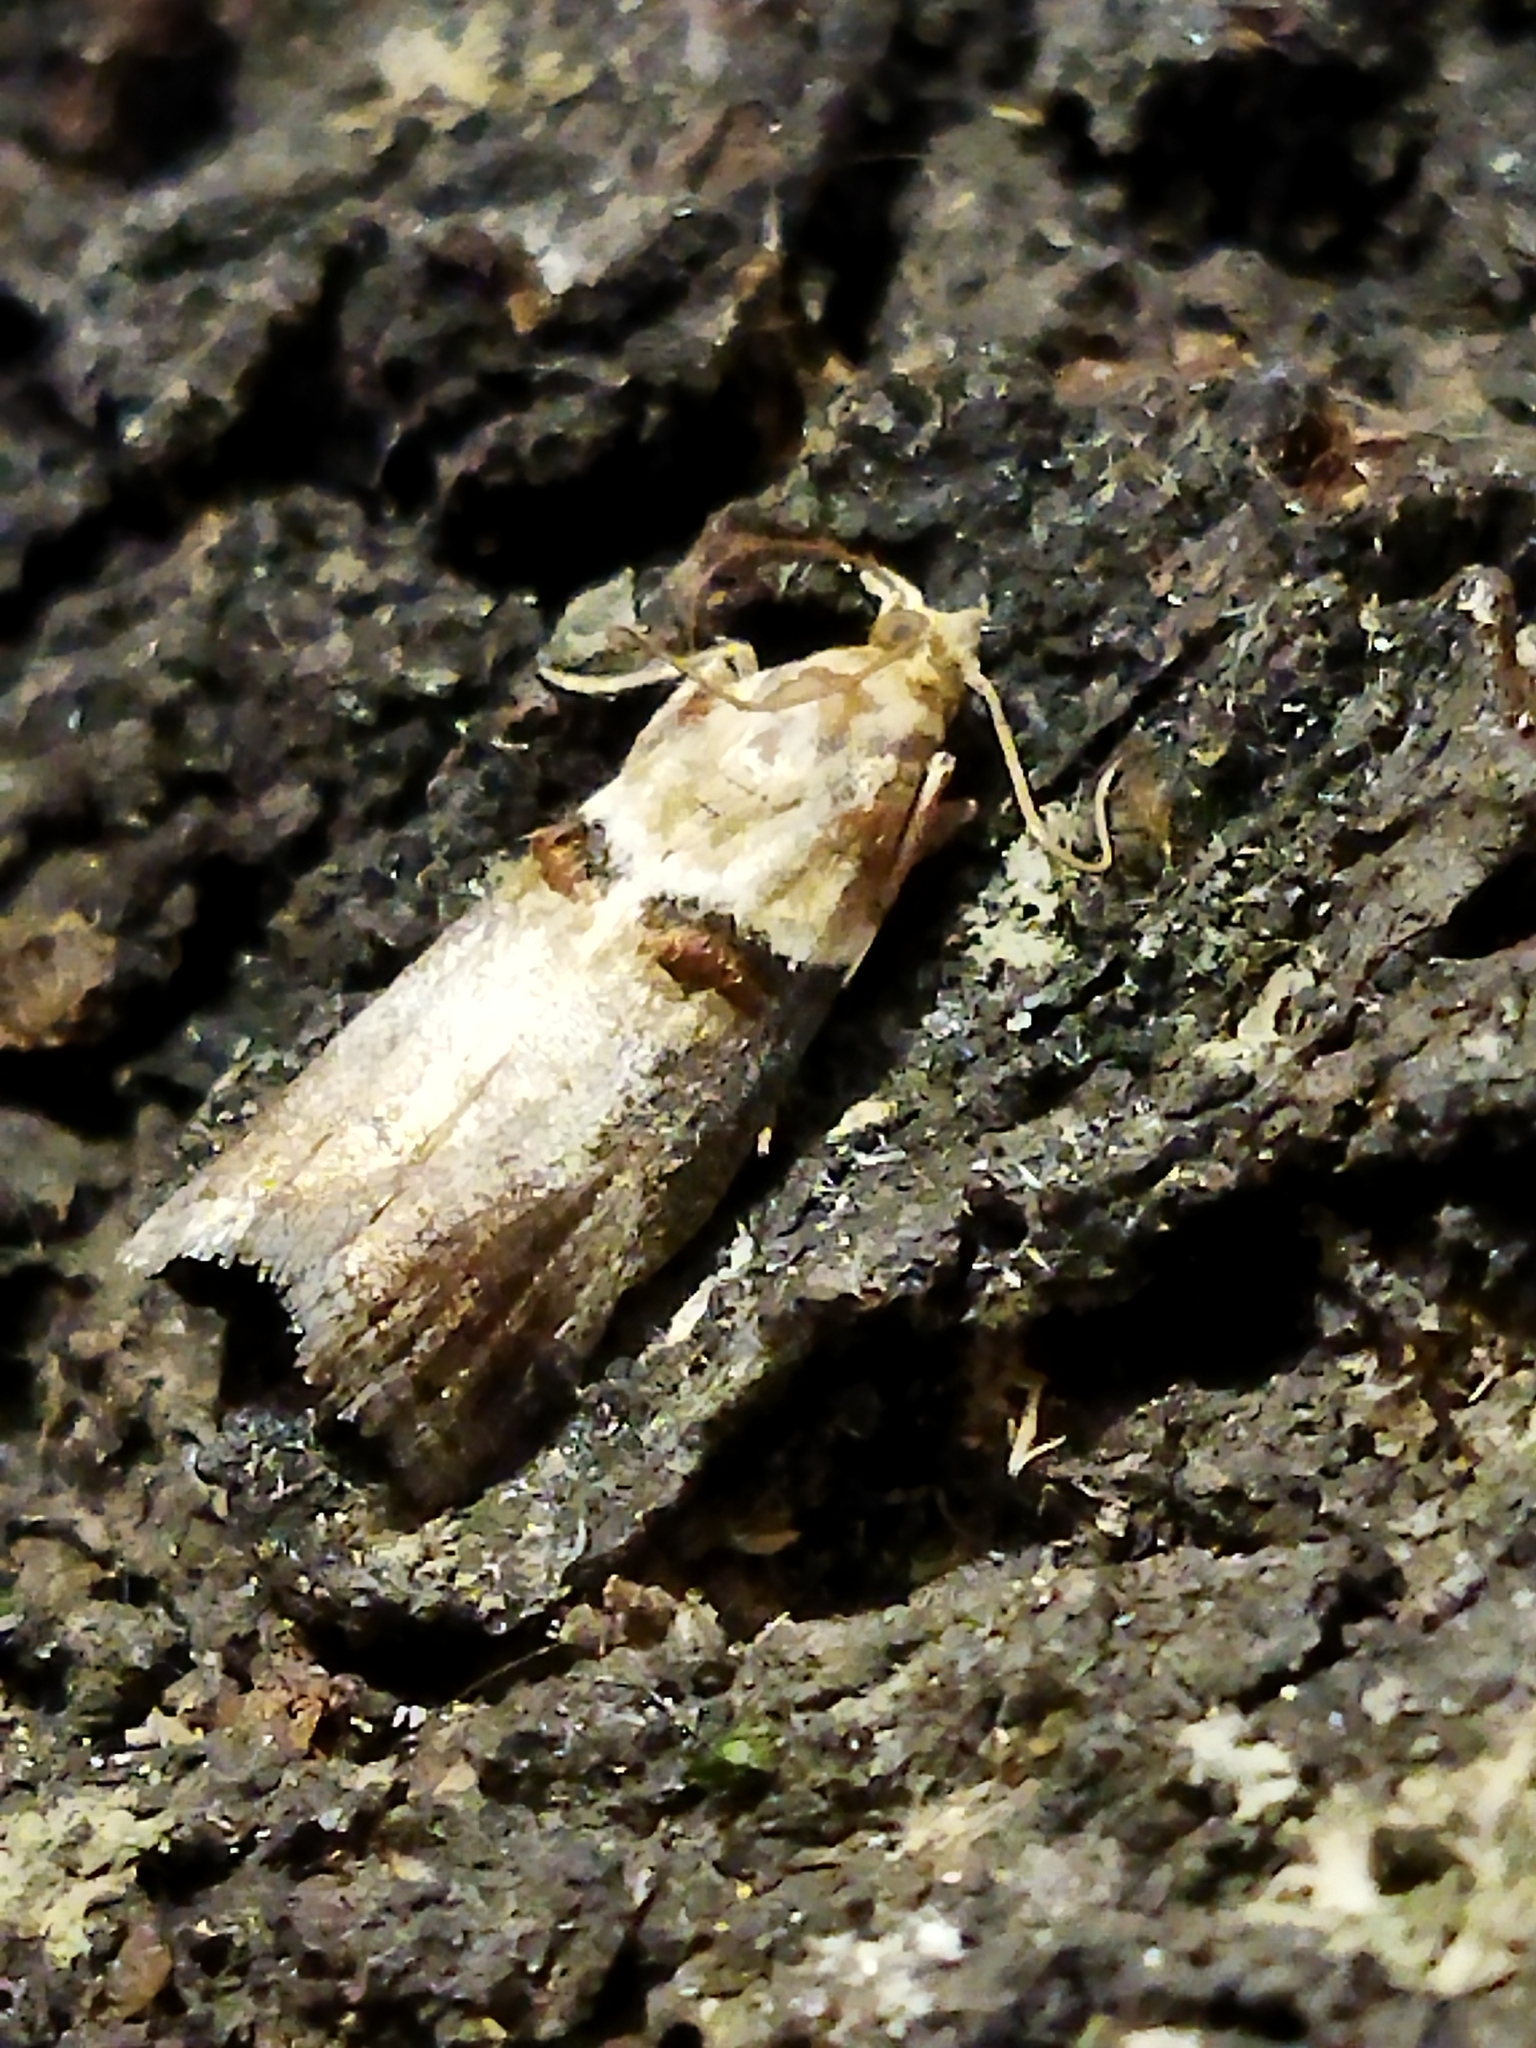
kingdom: Animalia
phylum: Arthropoda
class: Insecta
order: Lepidoptera
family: Pyralidae
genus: Acrobasis
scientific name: Acrobasis tumidana
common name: Scarce oak knot-horn
